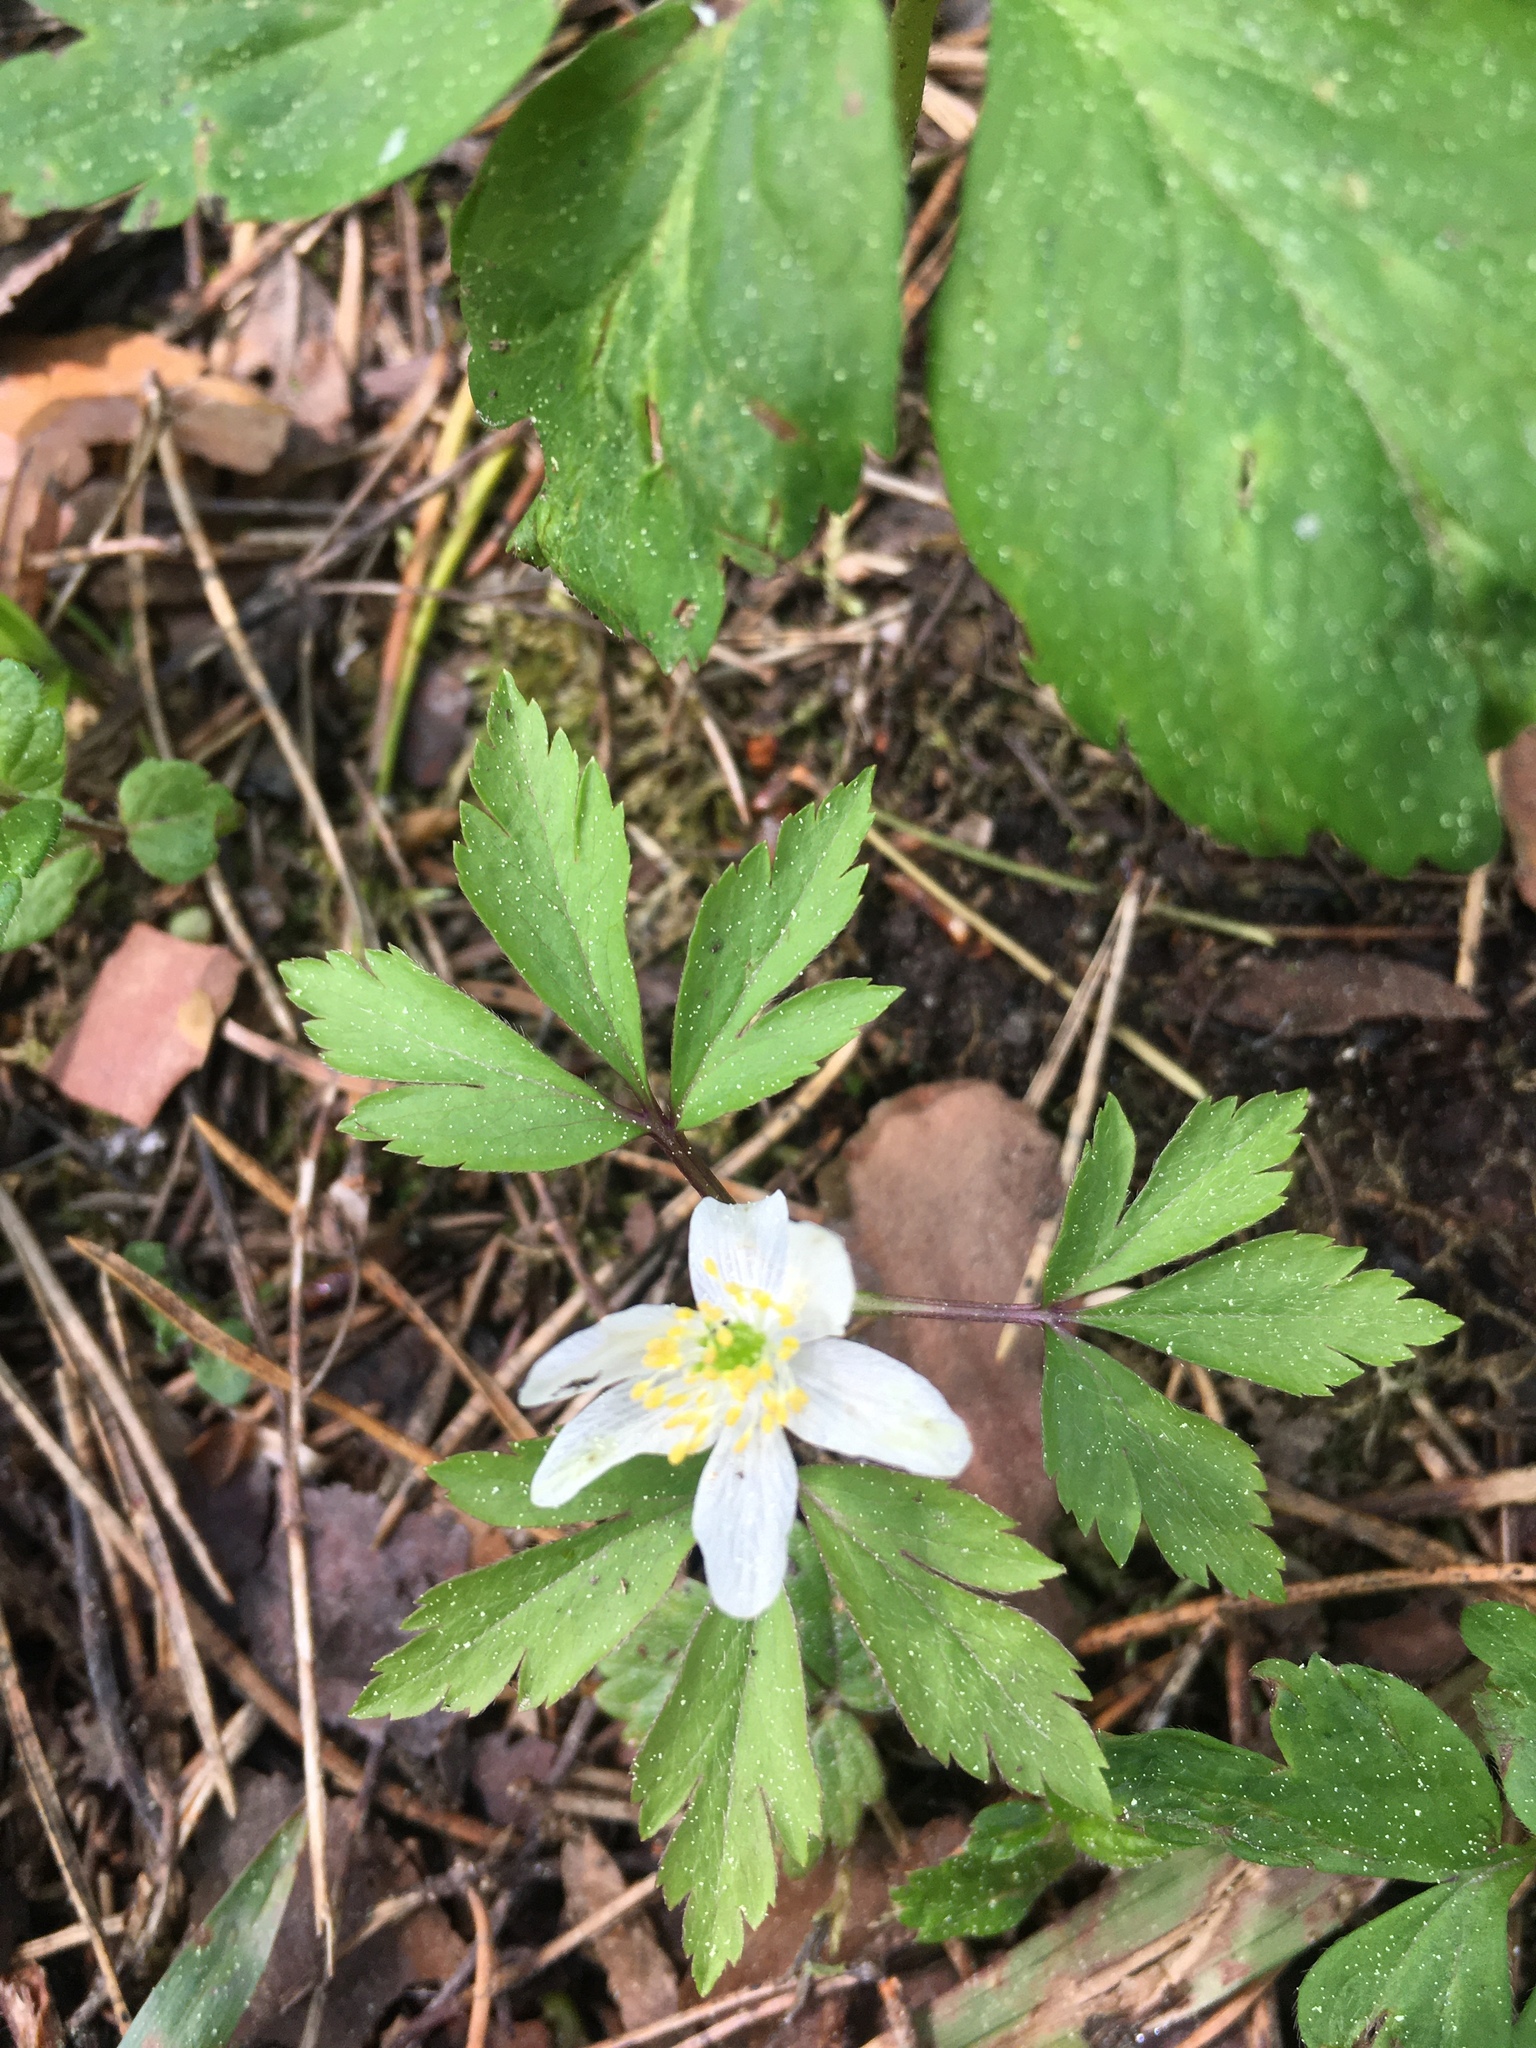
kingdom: Plantae
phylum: Tracheophyta
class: Magnoliopsida
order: Ranunculales
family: Ranunculaceae
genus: Anemone
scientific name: Anemone nemorosa
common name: Wood anemone
